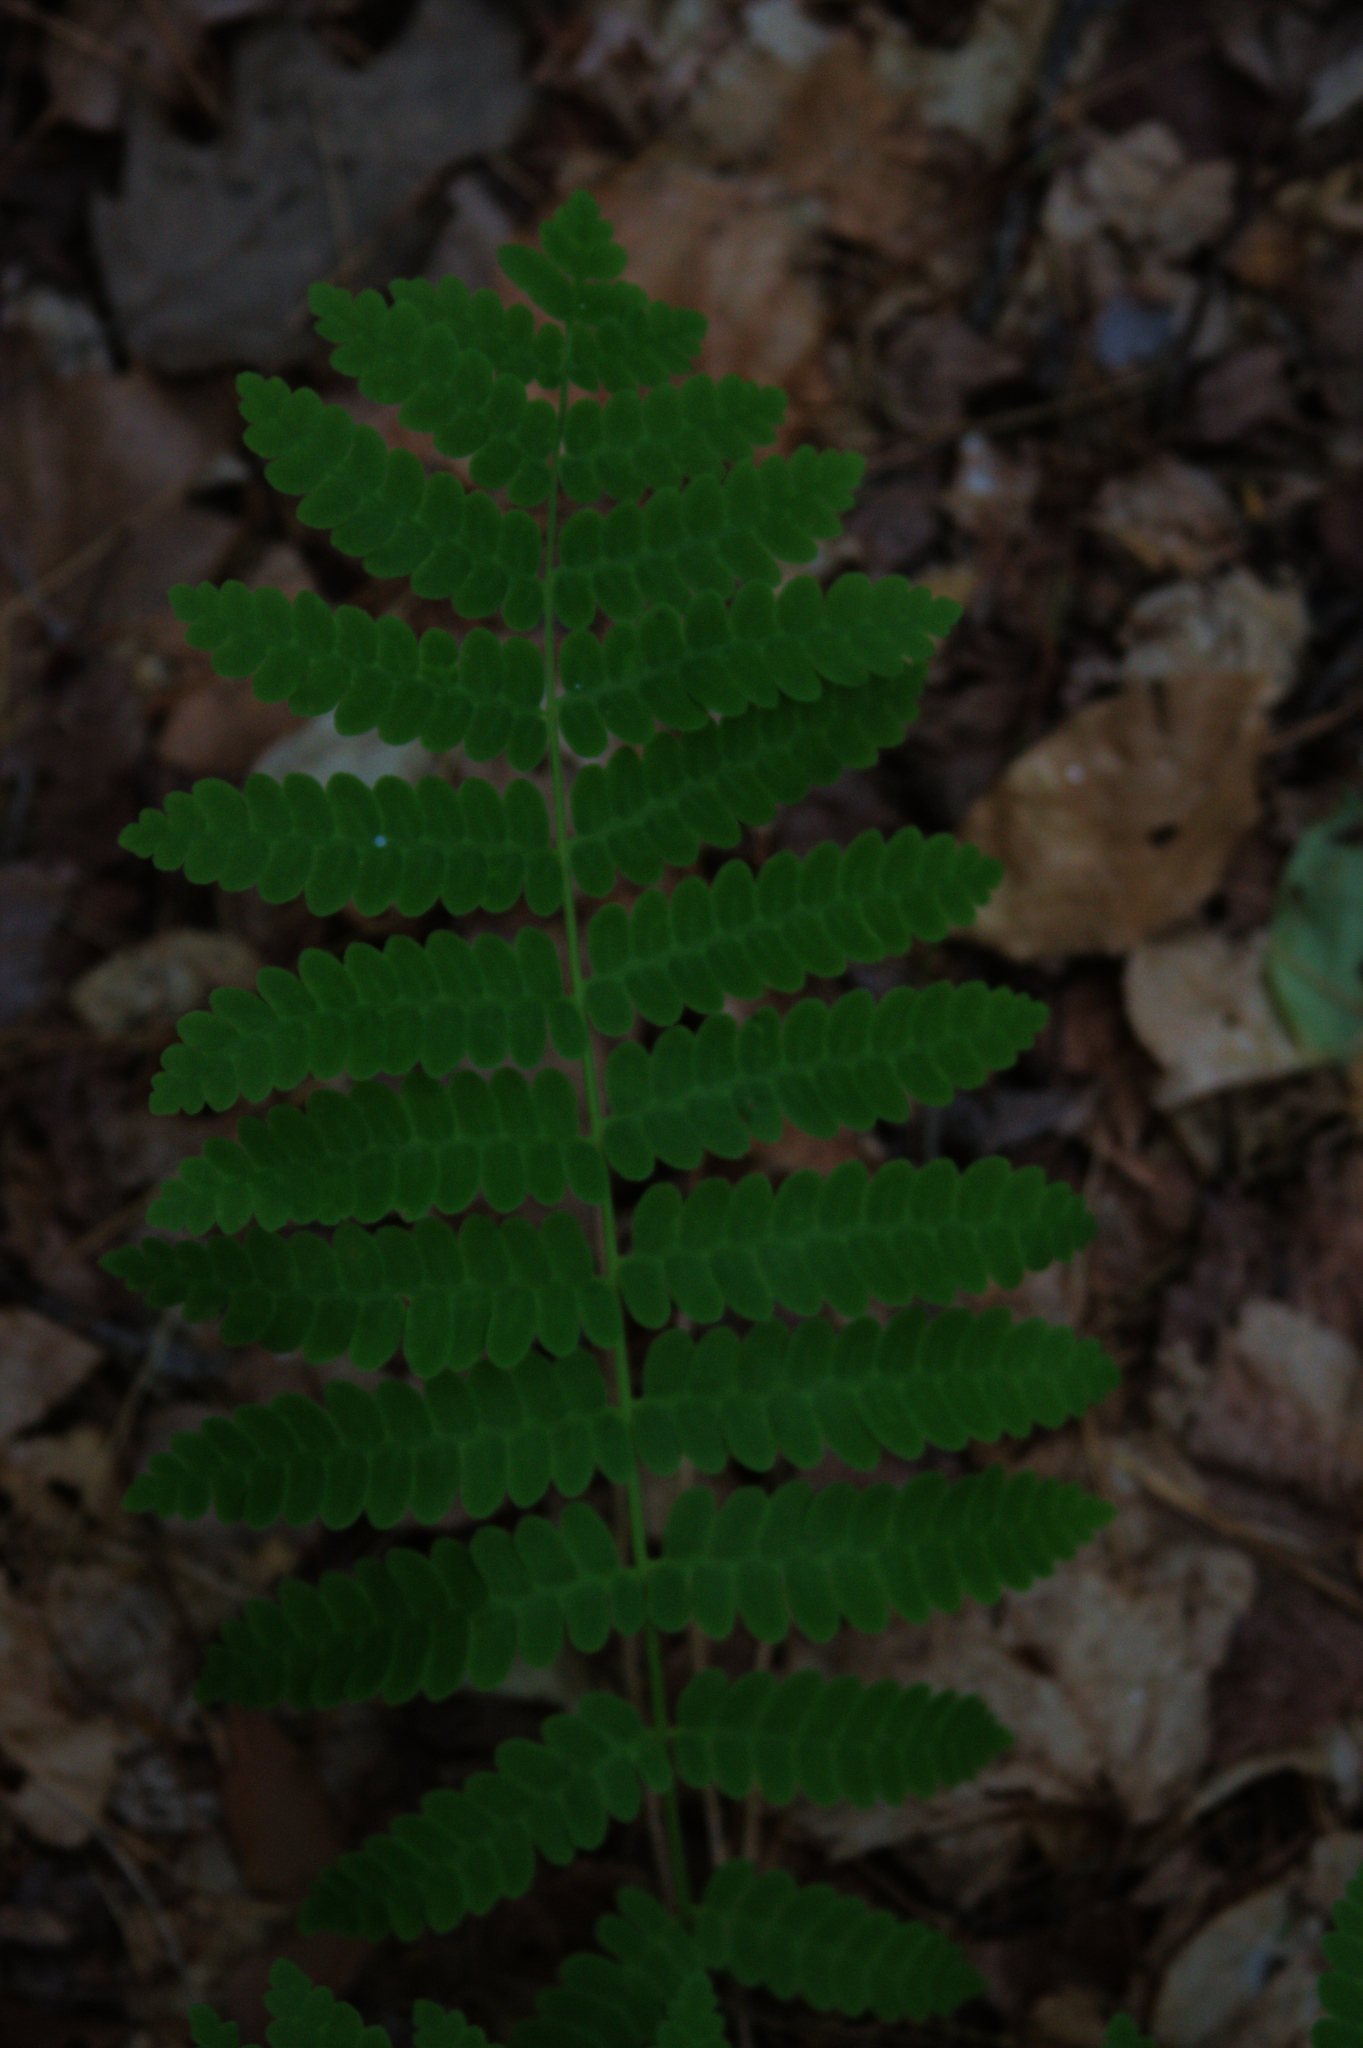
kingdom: Plantae
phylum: Tracheophyta
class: Polypodiopsida
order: Osmundales
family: Osmundaceae
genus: Claytosmunda
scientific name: Claytosmunda claytoniana
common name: Clayton's fern
